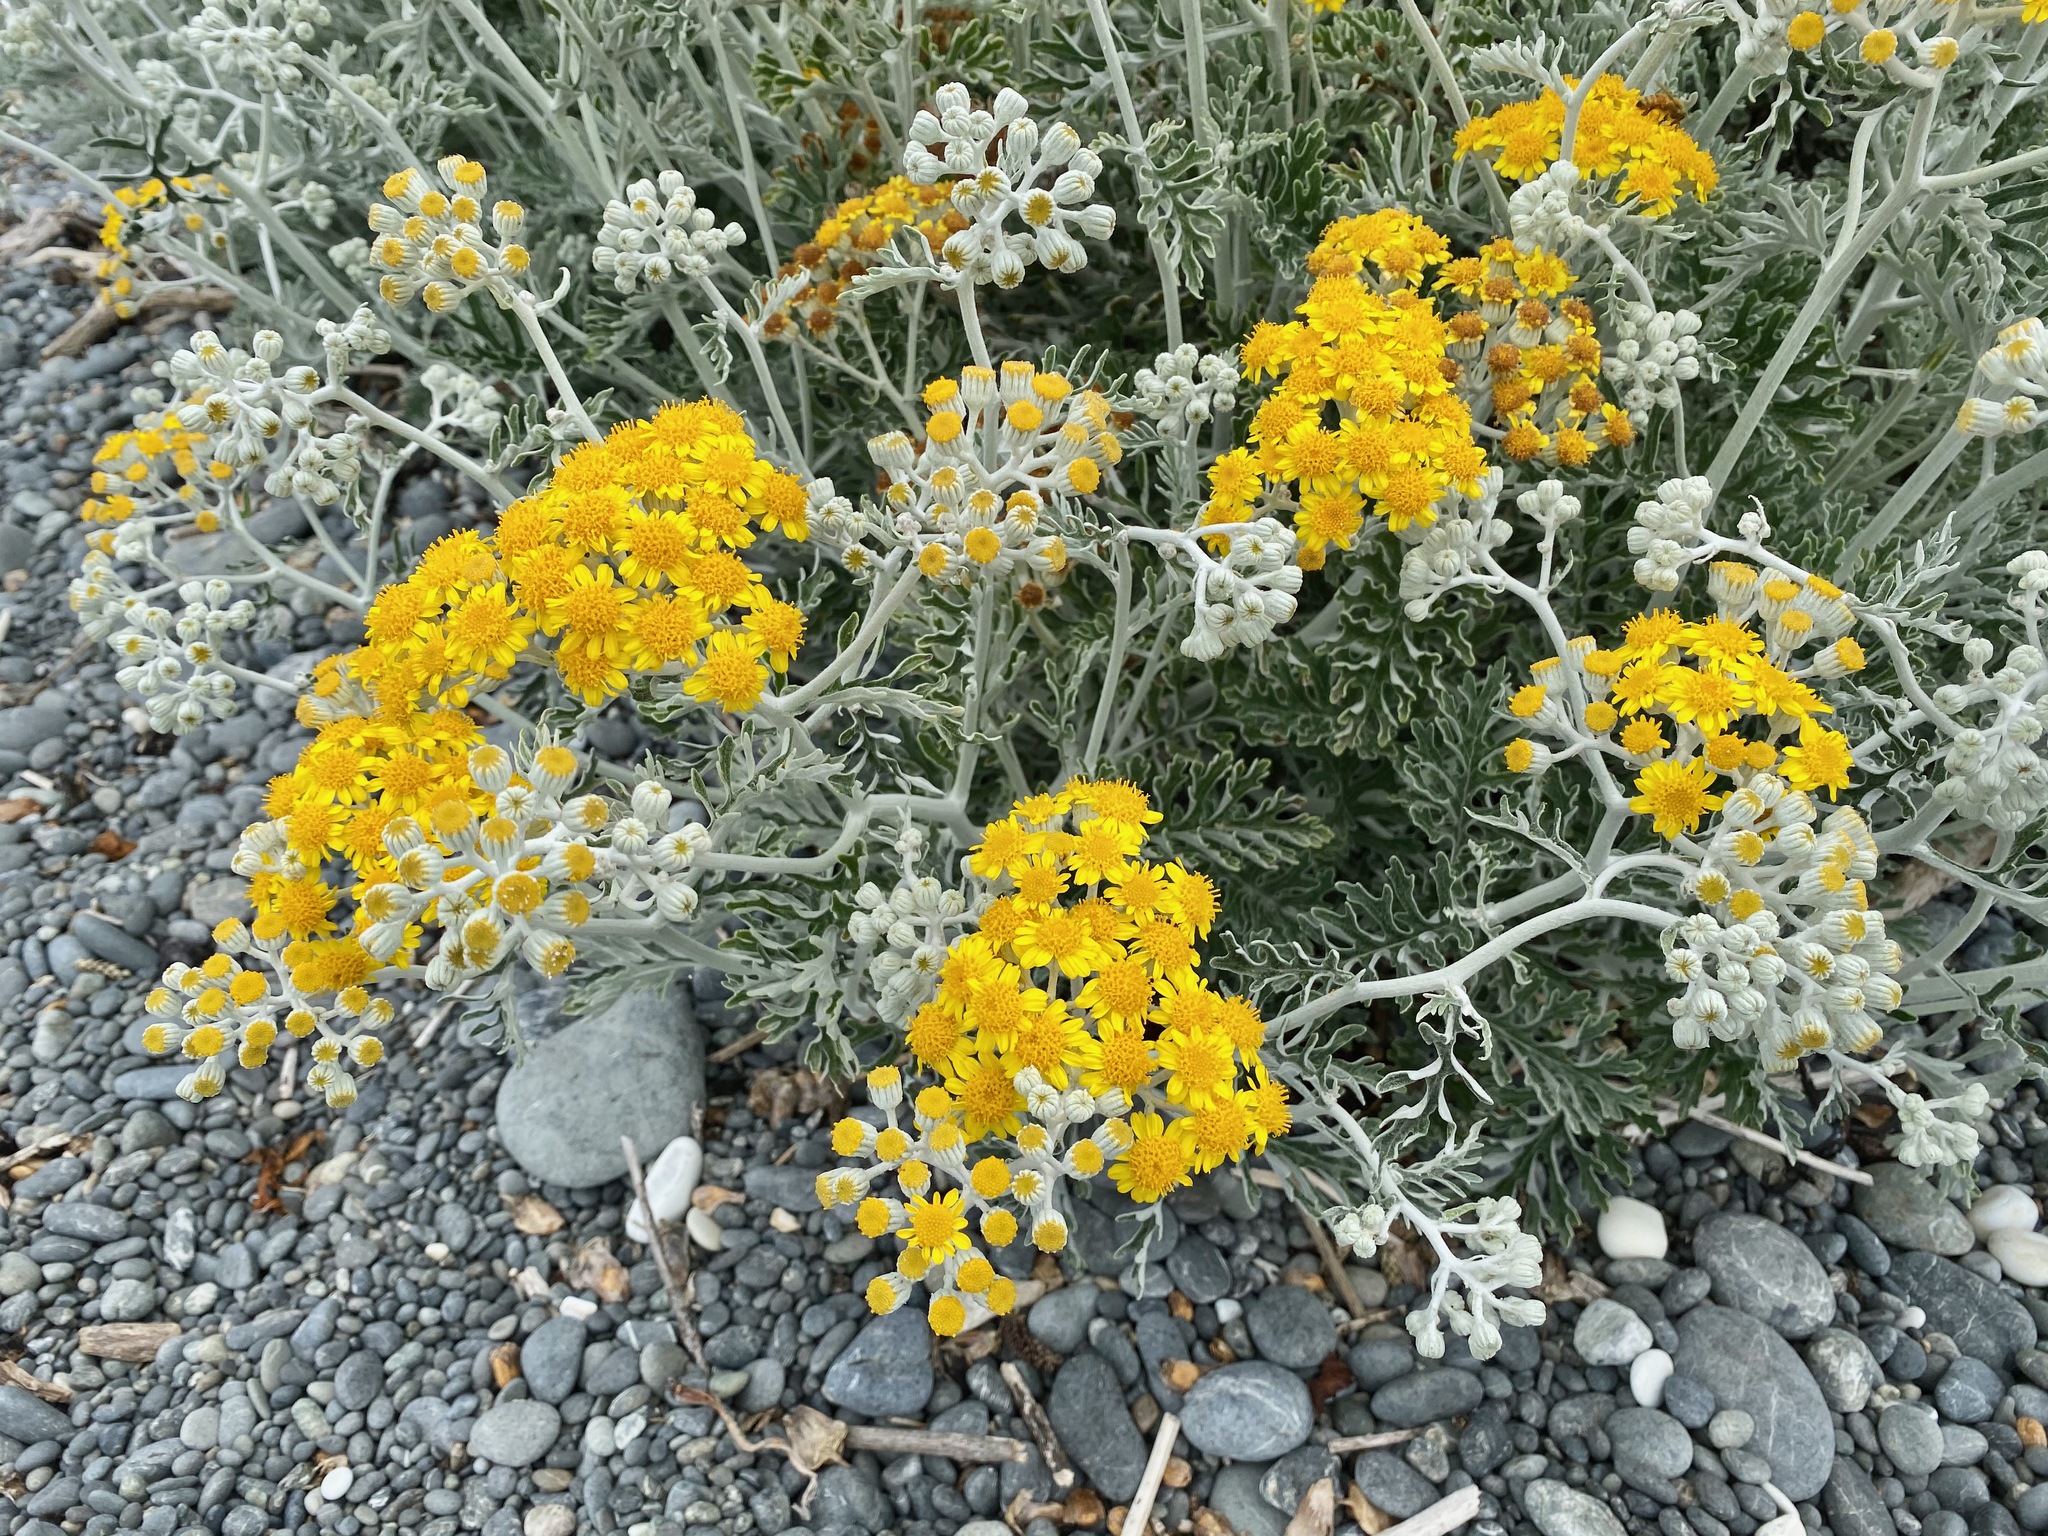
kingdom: Plantae
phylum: Tracheophyta
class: Magnoliopsida
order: Asterales
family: Asteraceae
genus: Jacobaea
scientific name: Jacobaea maritima
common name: Silver ragwort
